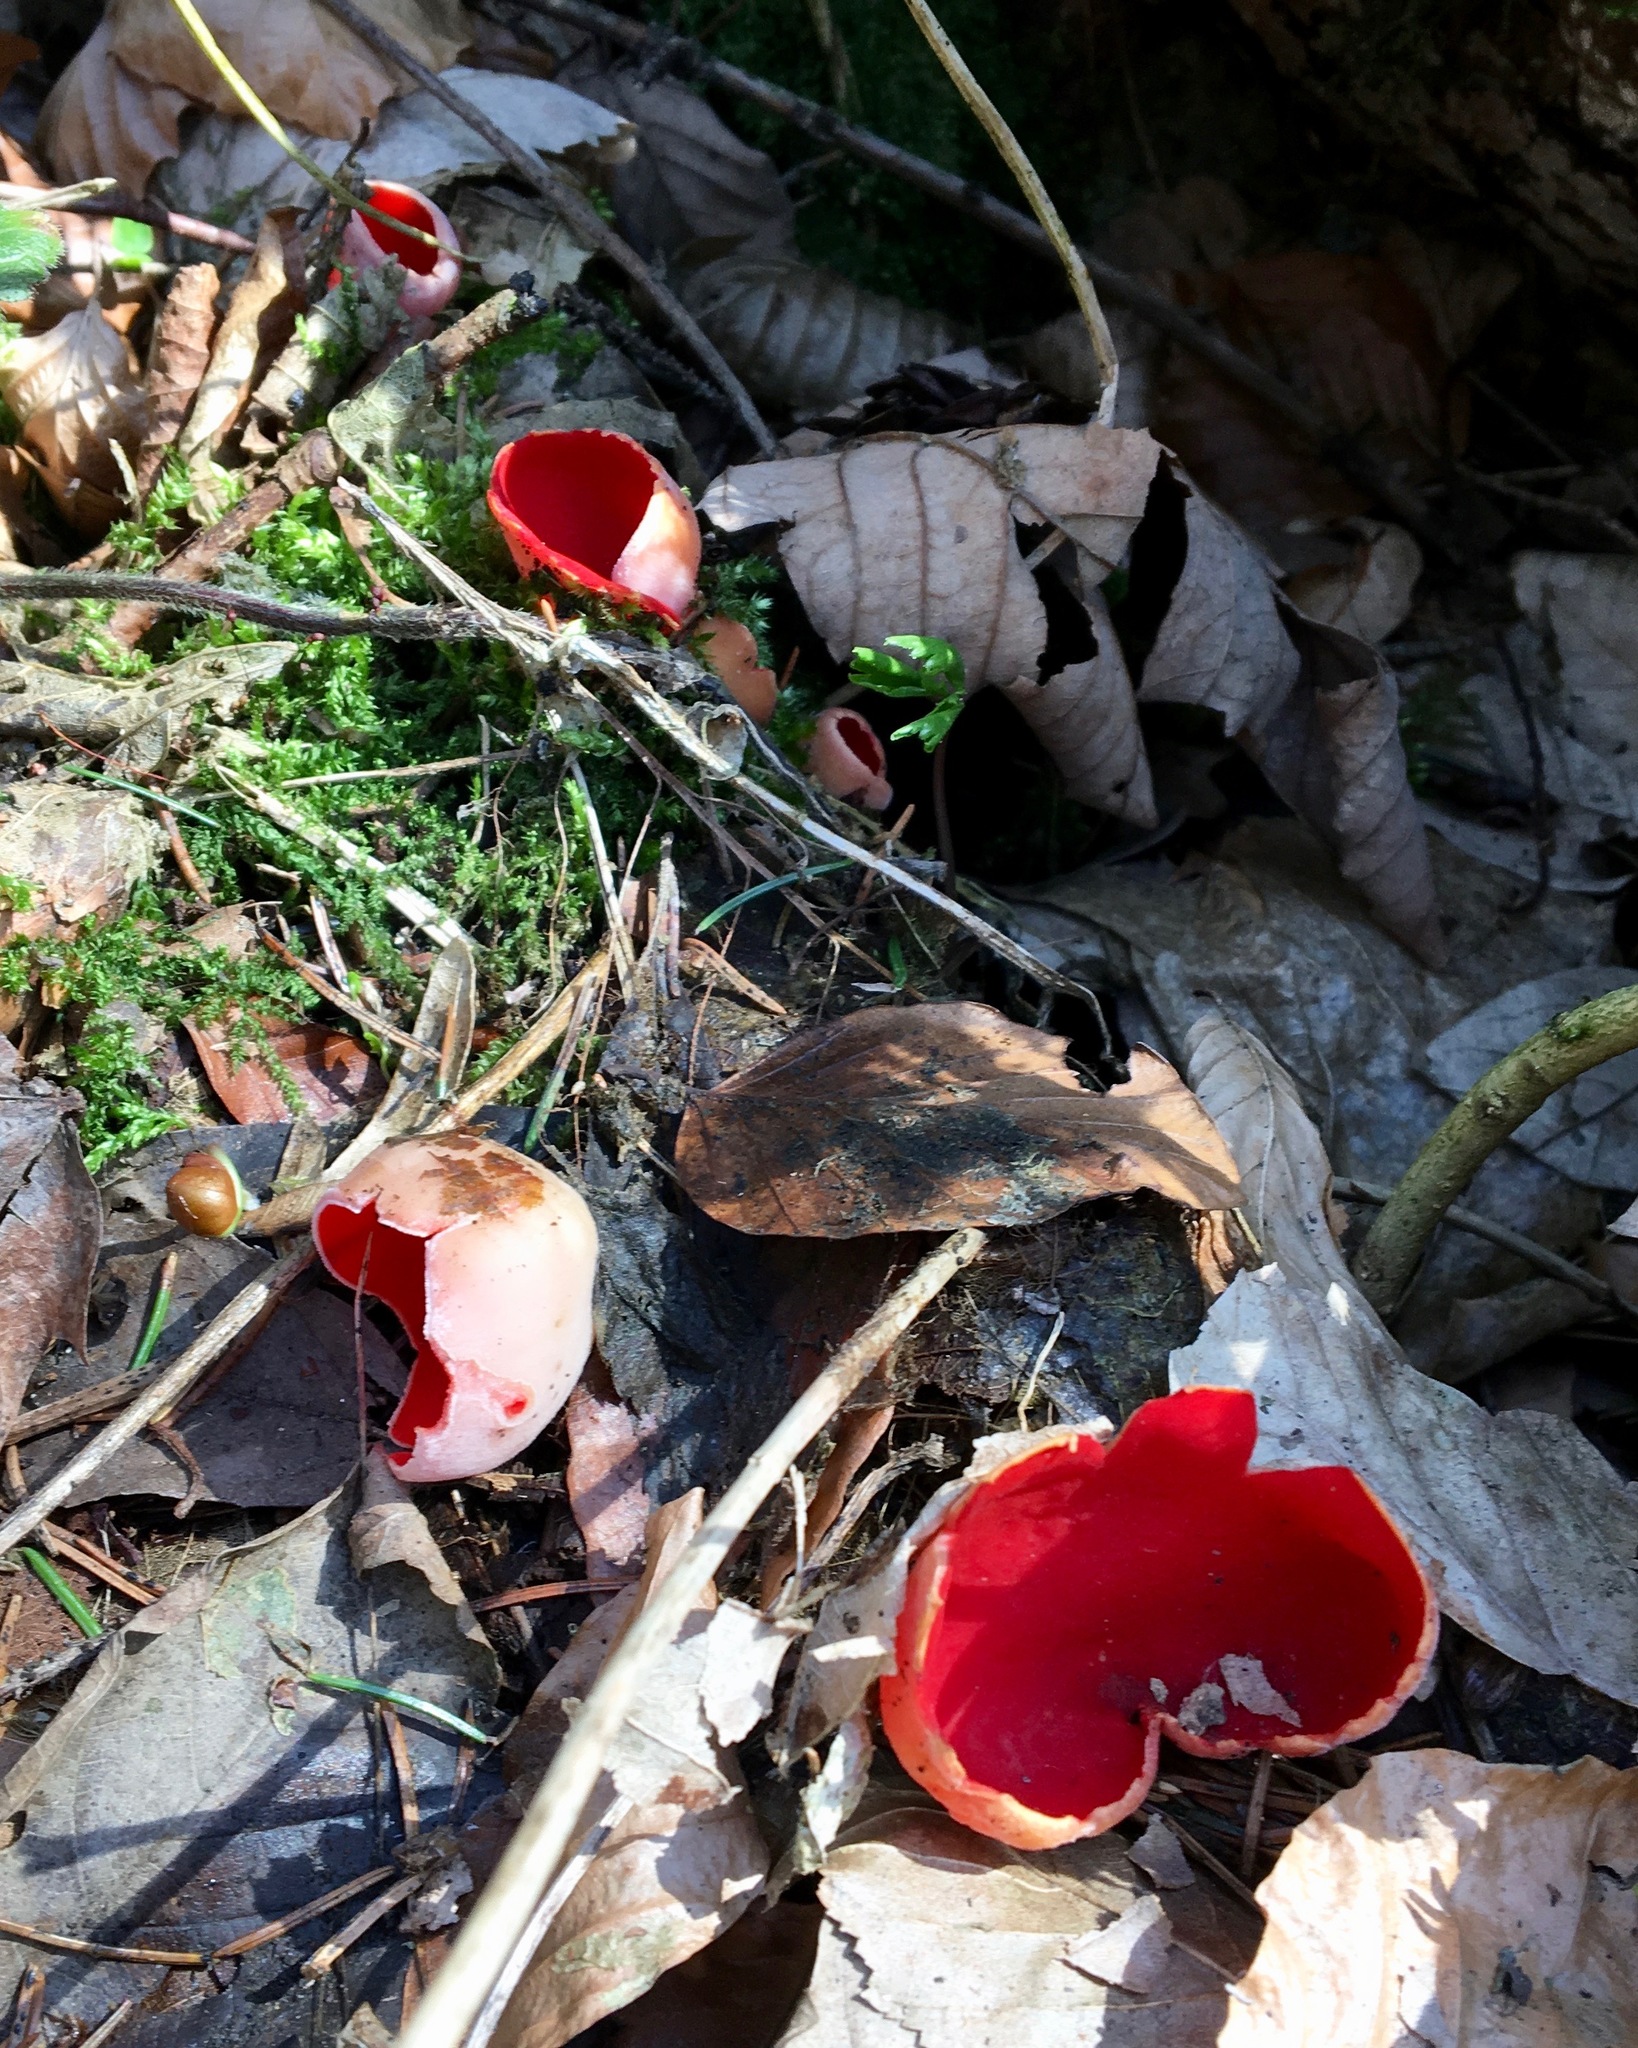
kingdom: Fungi
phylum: Ascomycota
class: Pezizomycetes
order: Pezizales
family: Sarcoscyphaceae
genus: Sarcoscypha
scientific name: Sarcoscypha
